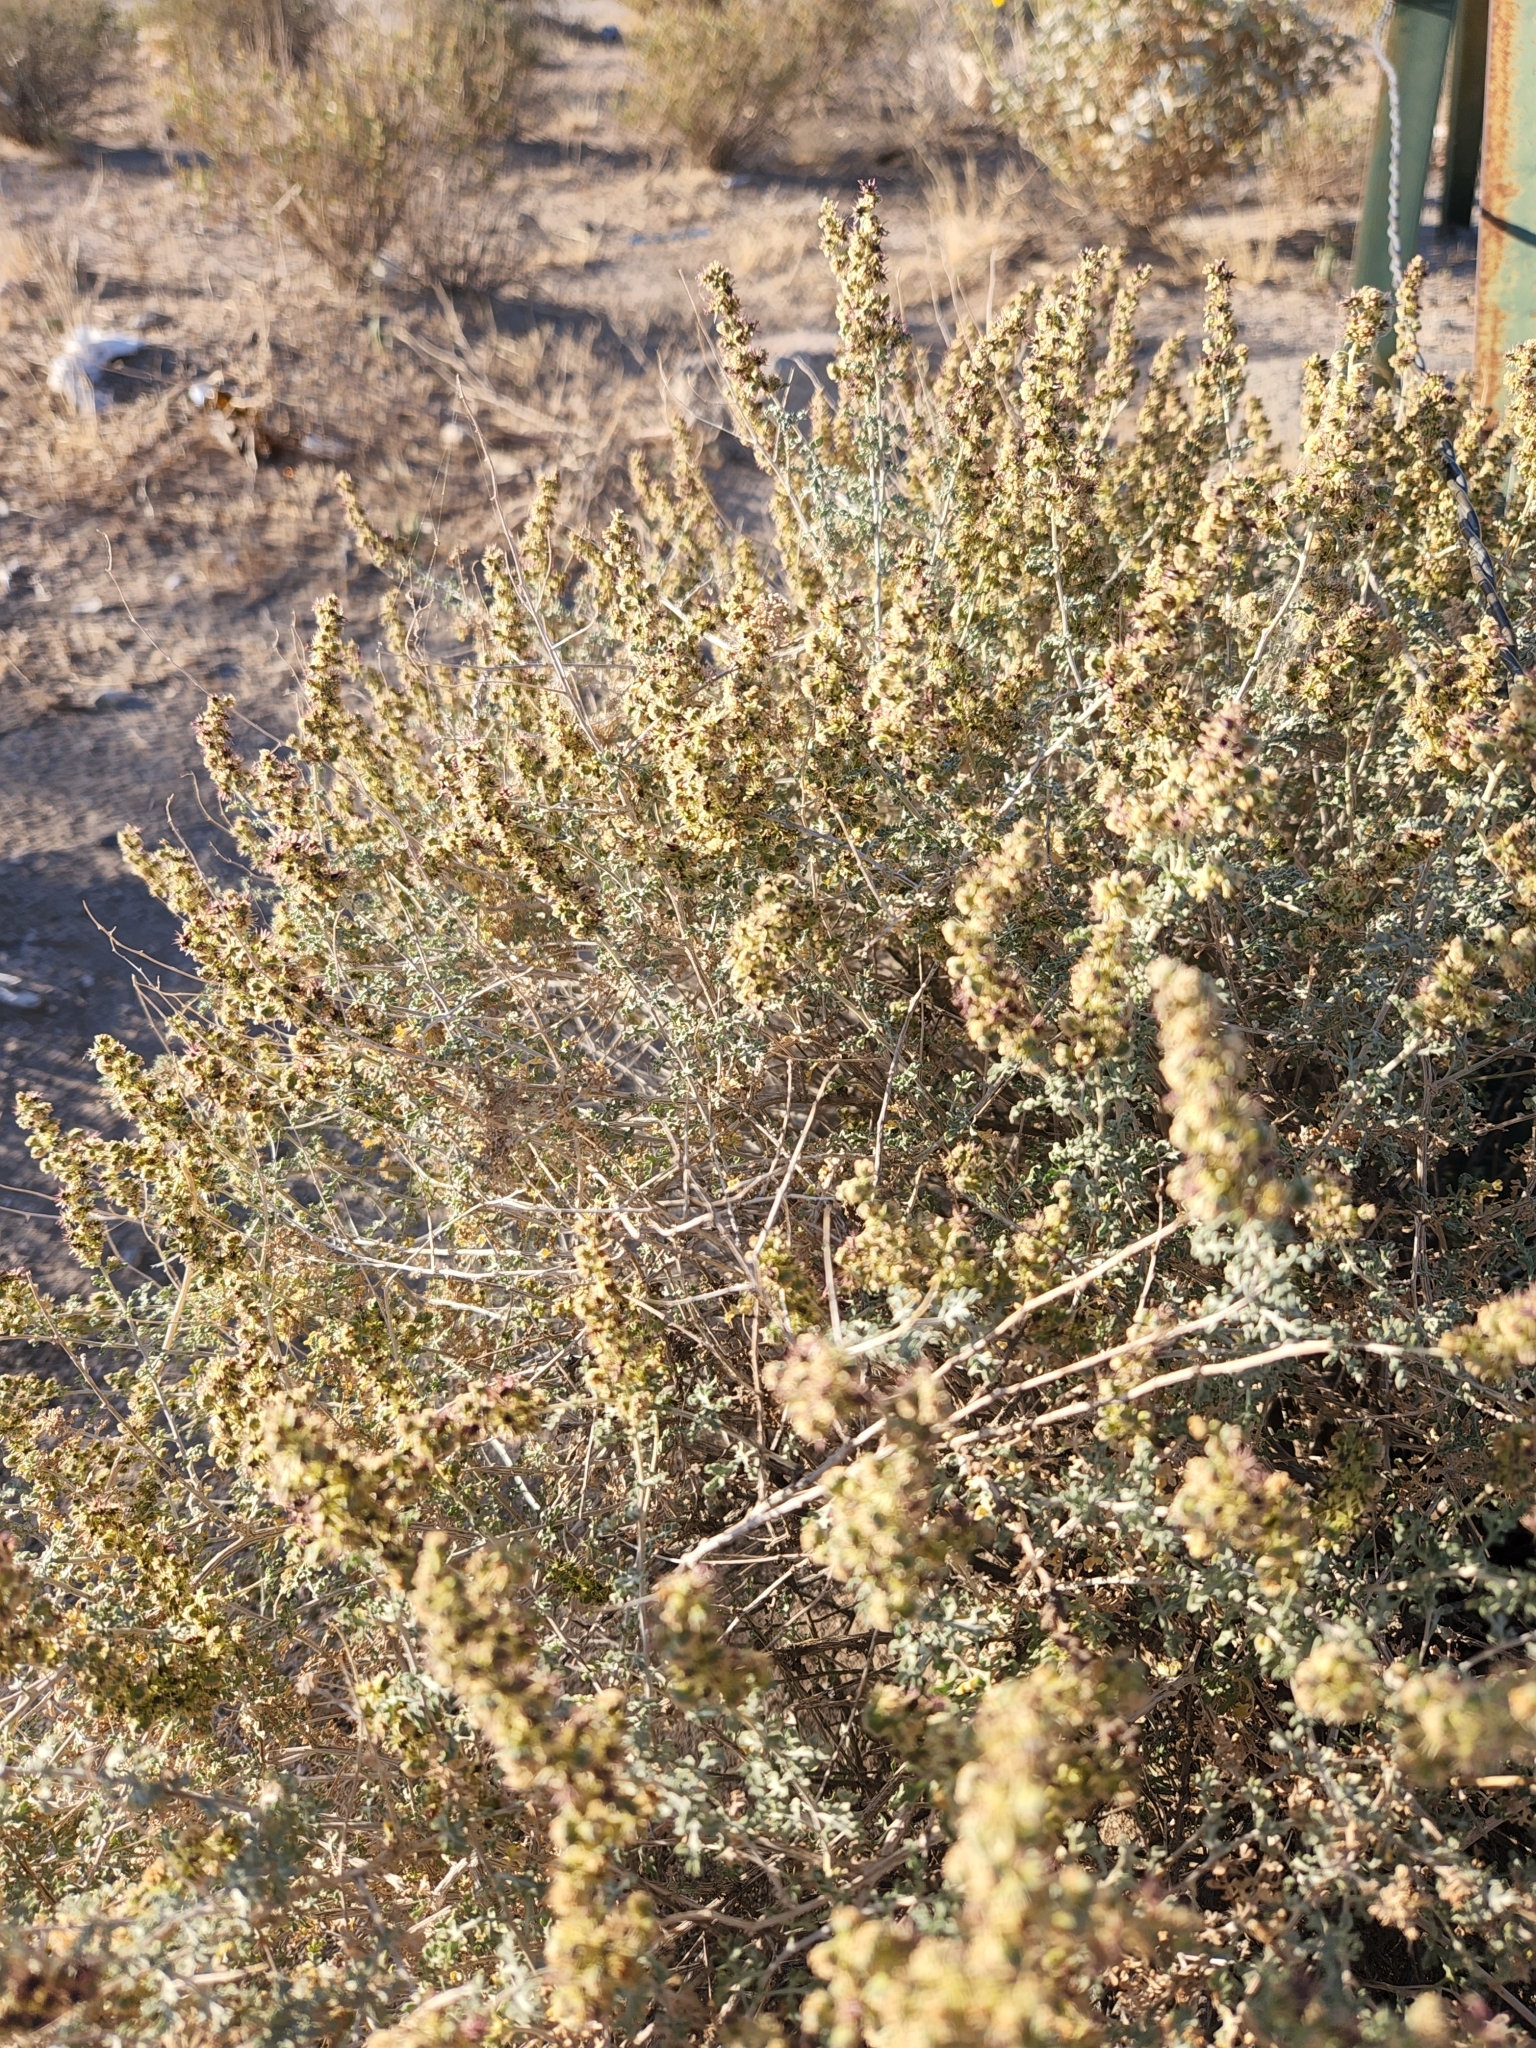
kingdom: Plantae
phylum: Tracheophyta
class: Magnoliopsida
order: Asterales
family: Asteraceae
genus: Ambrosia
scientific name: Ambrosia dumosa
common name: Bur-sage
